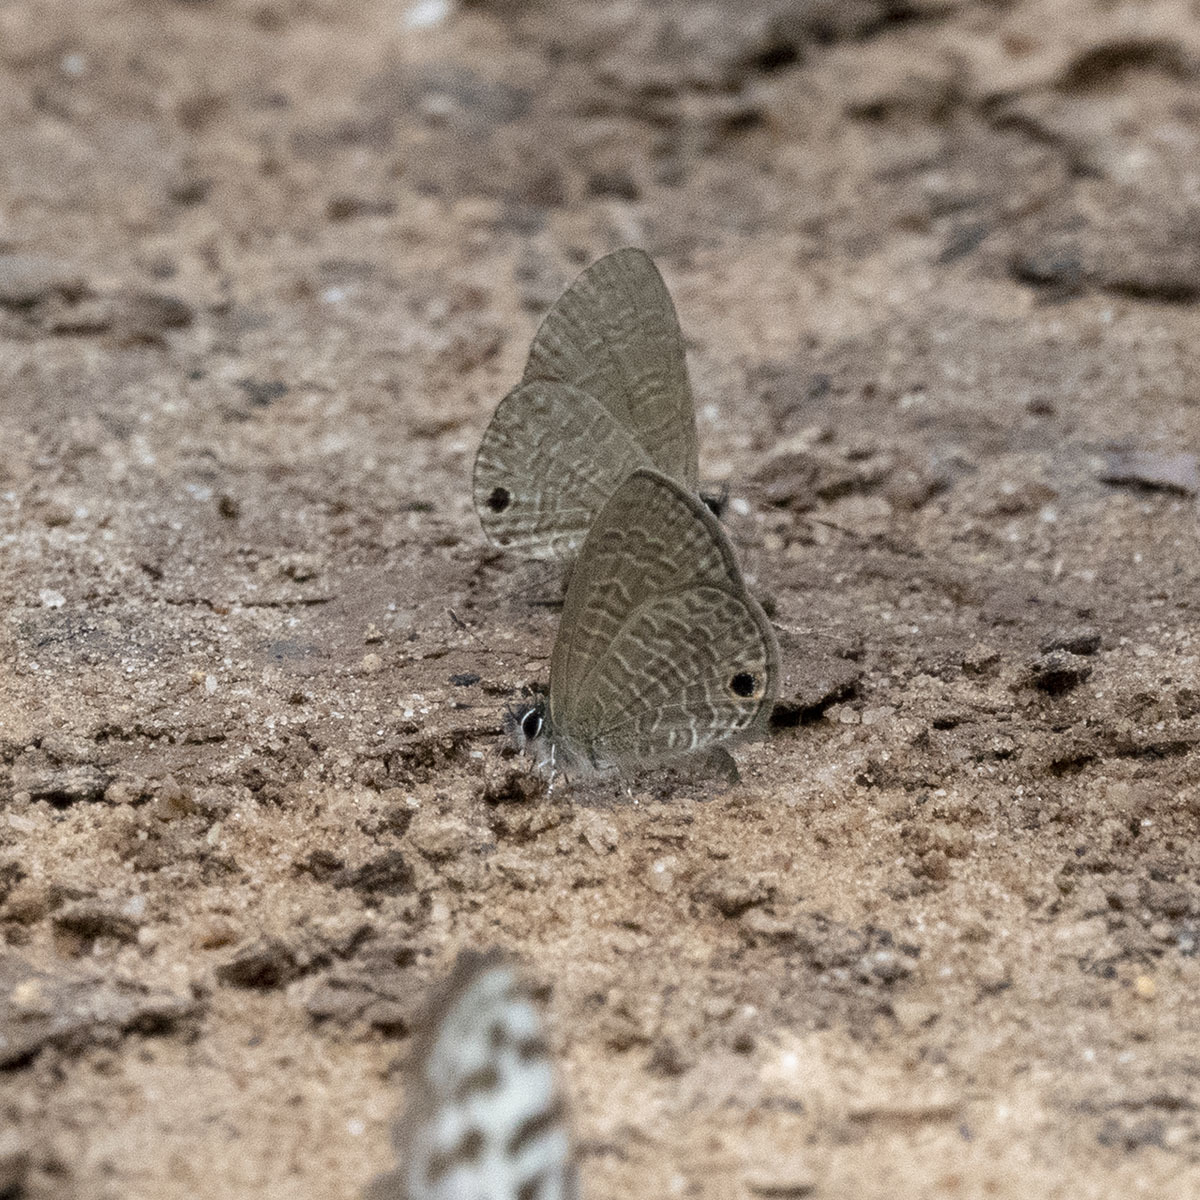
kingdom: Animalia
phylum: Arthropoda
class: Insecta
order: Lepidoptera
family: Lycaenidae
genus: Prosotas
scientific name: Prosotas dubiosa
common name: Tailless lineblue
